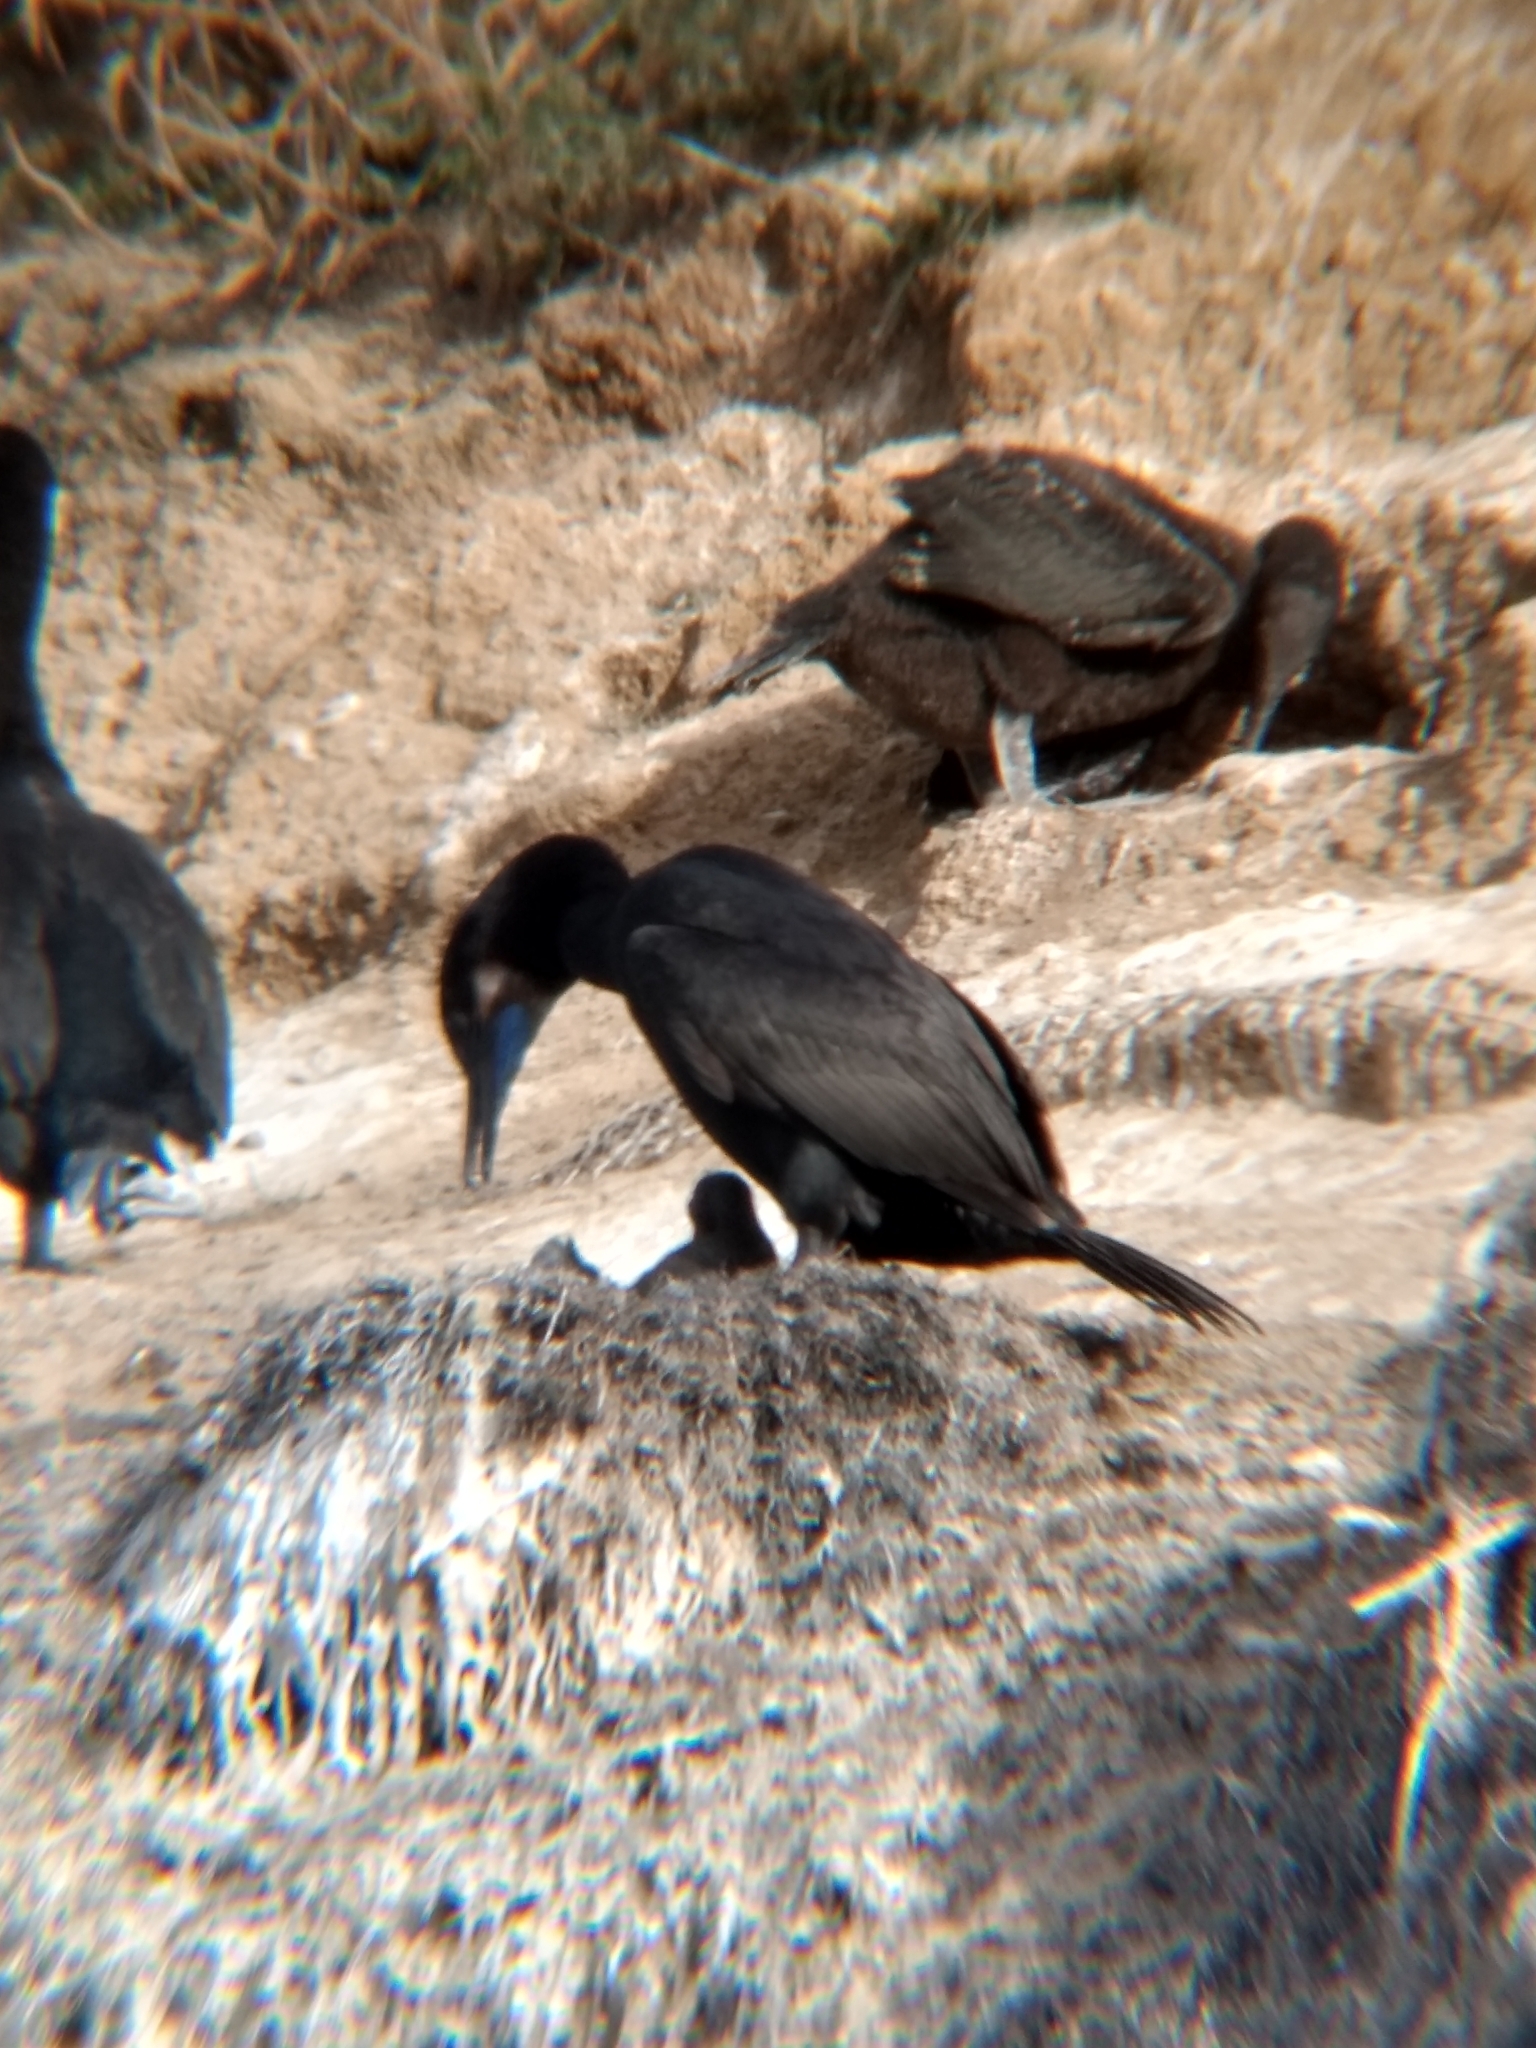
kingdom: Animalia
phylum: Chordata
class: Aves
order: Suliformes
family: Phalacrocoracidae
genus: Urile
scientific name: Urile penicillatus
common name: Brandt's cormorant
